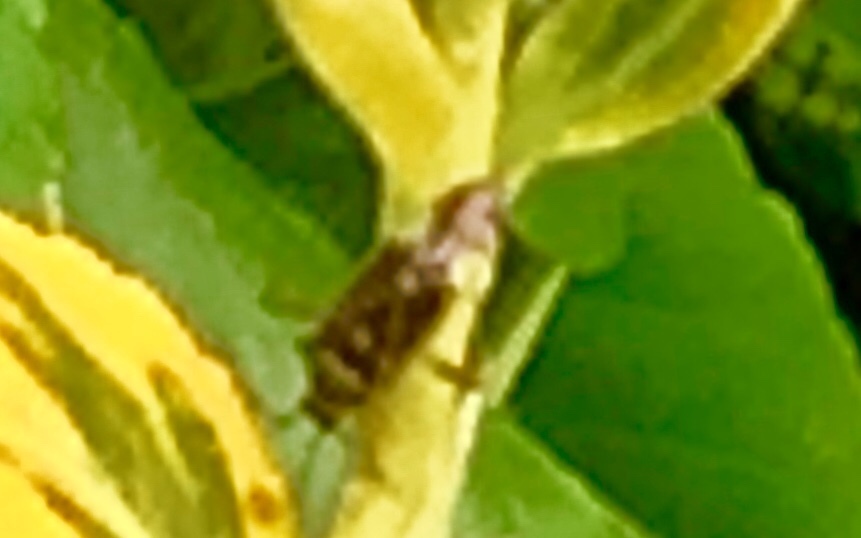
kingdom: Animalia
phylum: Arthropoda
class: Insecta
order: Hemiptera
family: Miridae
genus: Harpocera
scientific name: Harpocera thoracica
